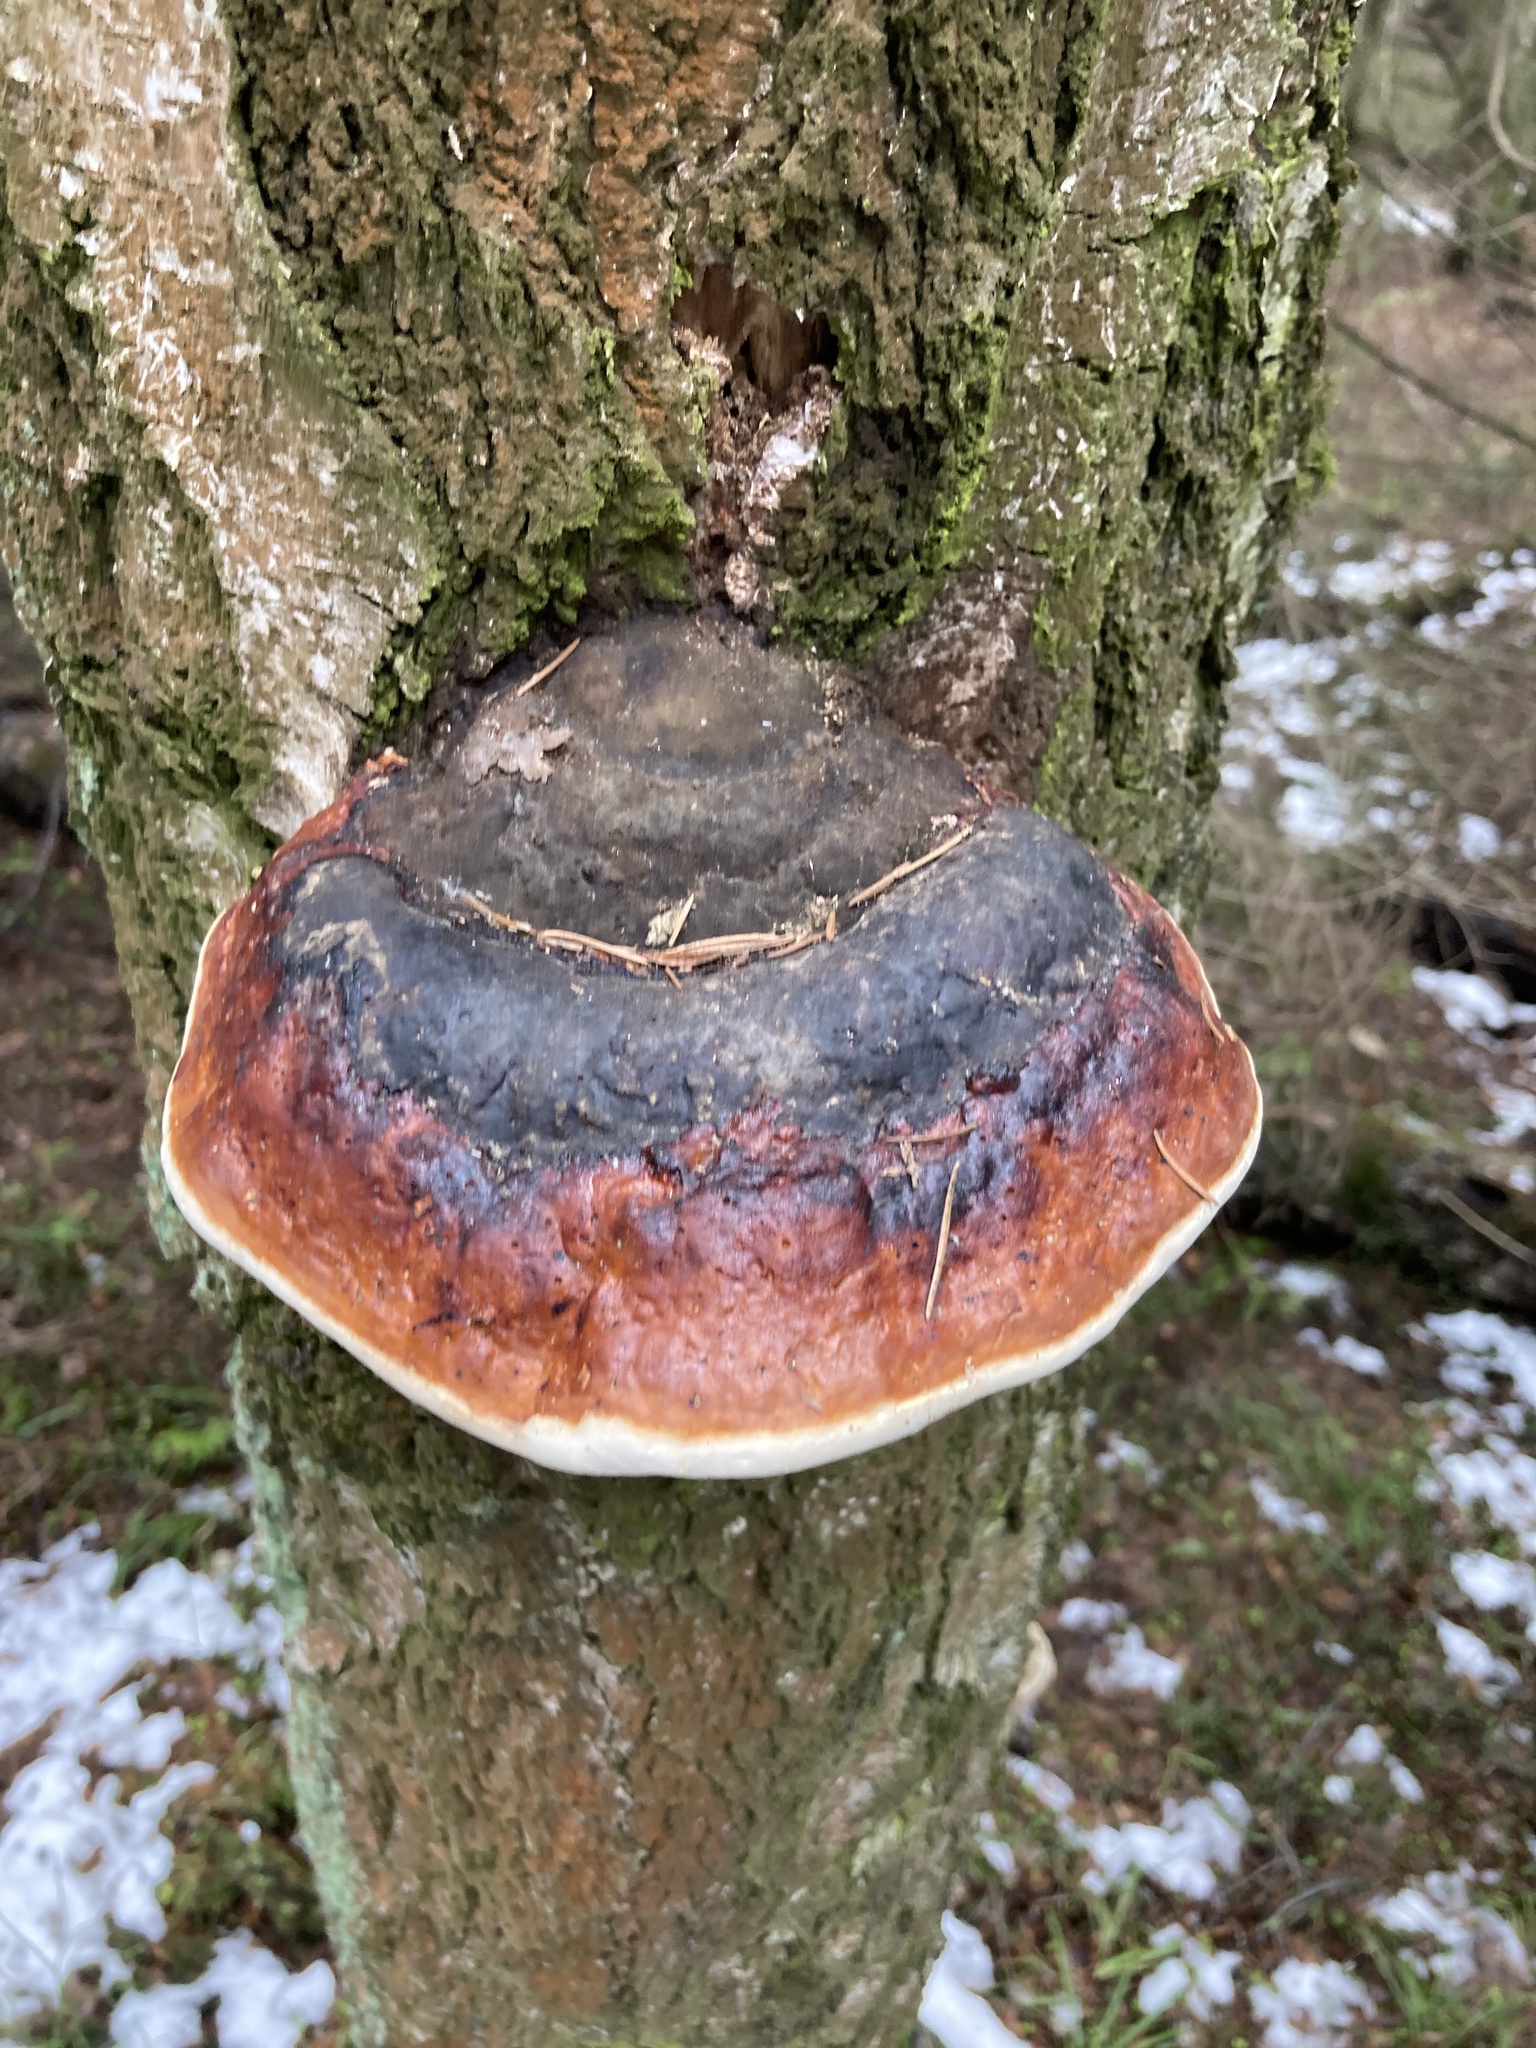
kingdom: Fungi
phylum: Basidiomycota
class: Agaricomycetes
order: Polyporales
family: Fomitopsidaceae
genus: Fomitopsis
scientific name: Fomitopsis pinicola
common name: Red-belted bracket
